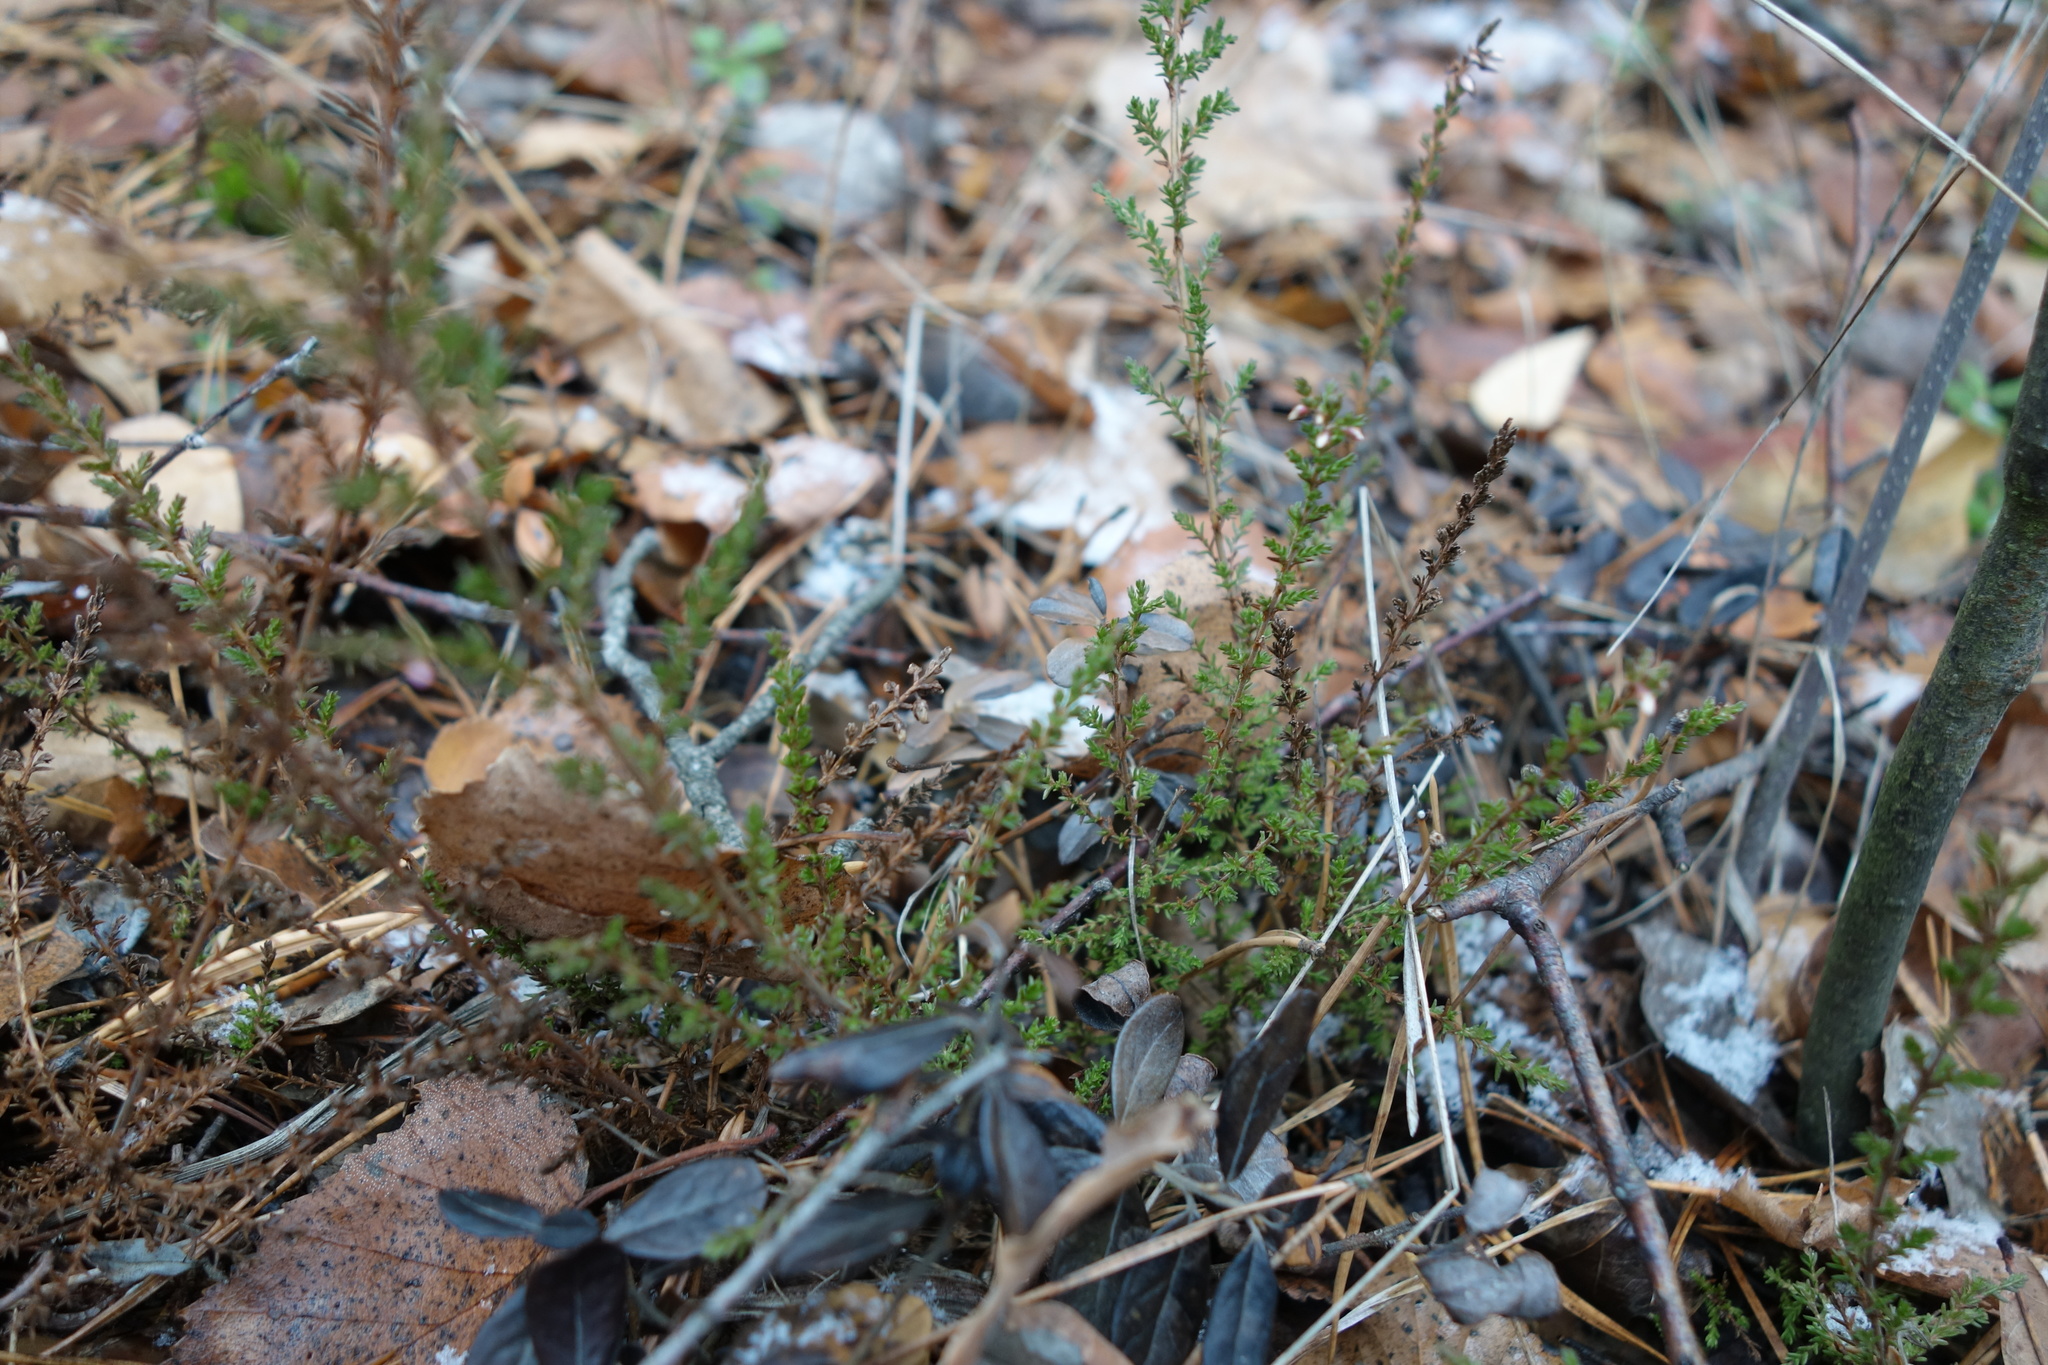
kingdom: Plantae
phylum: Tracheophyta
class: Magnoliopsida
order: Ericales
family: Ericaceae
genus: Calluna
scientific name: Calluna vulgaris
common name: Heather
